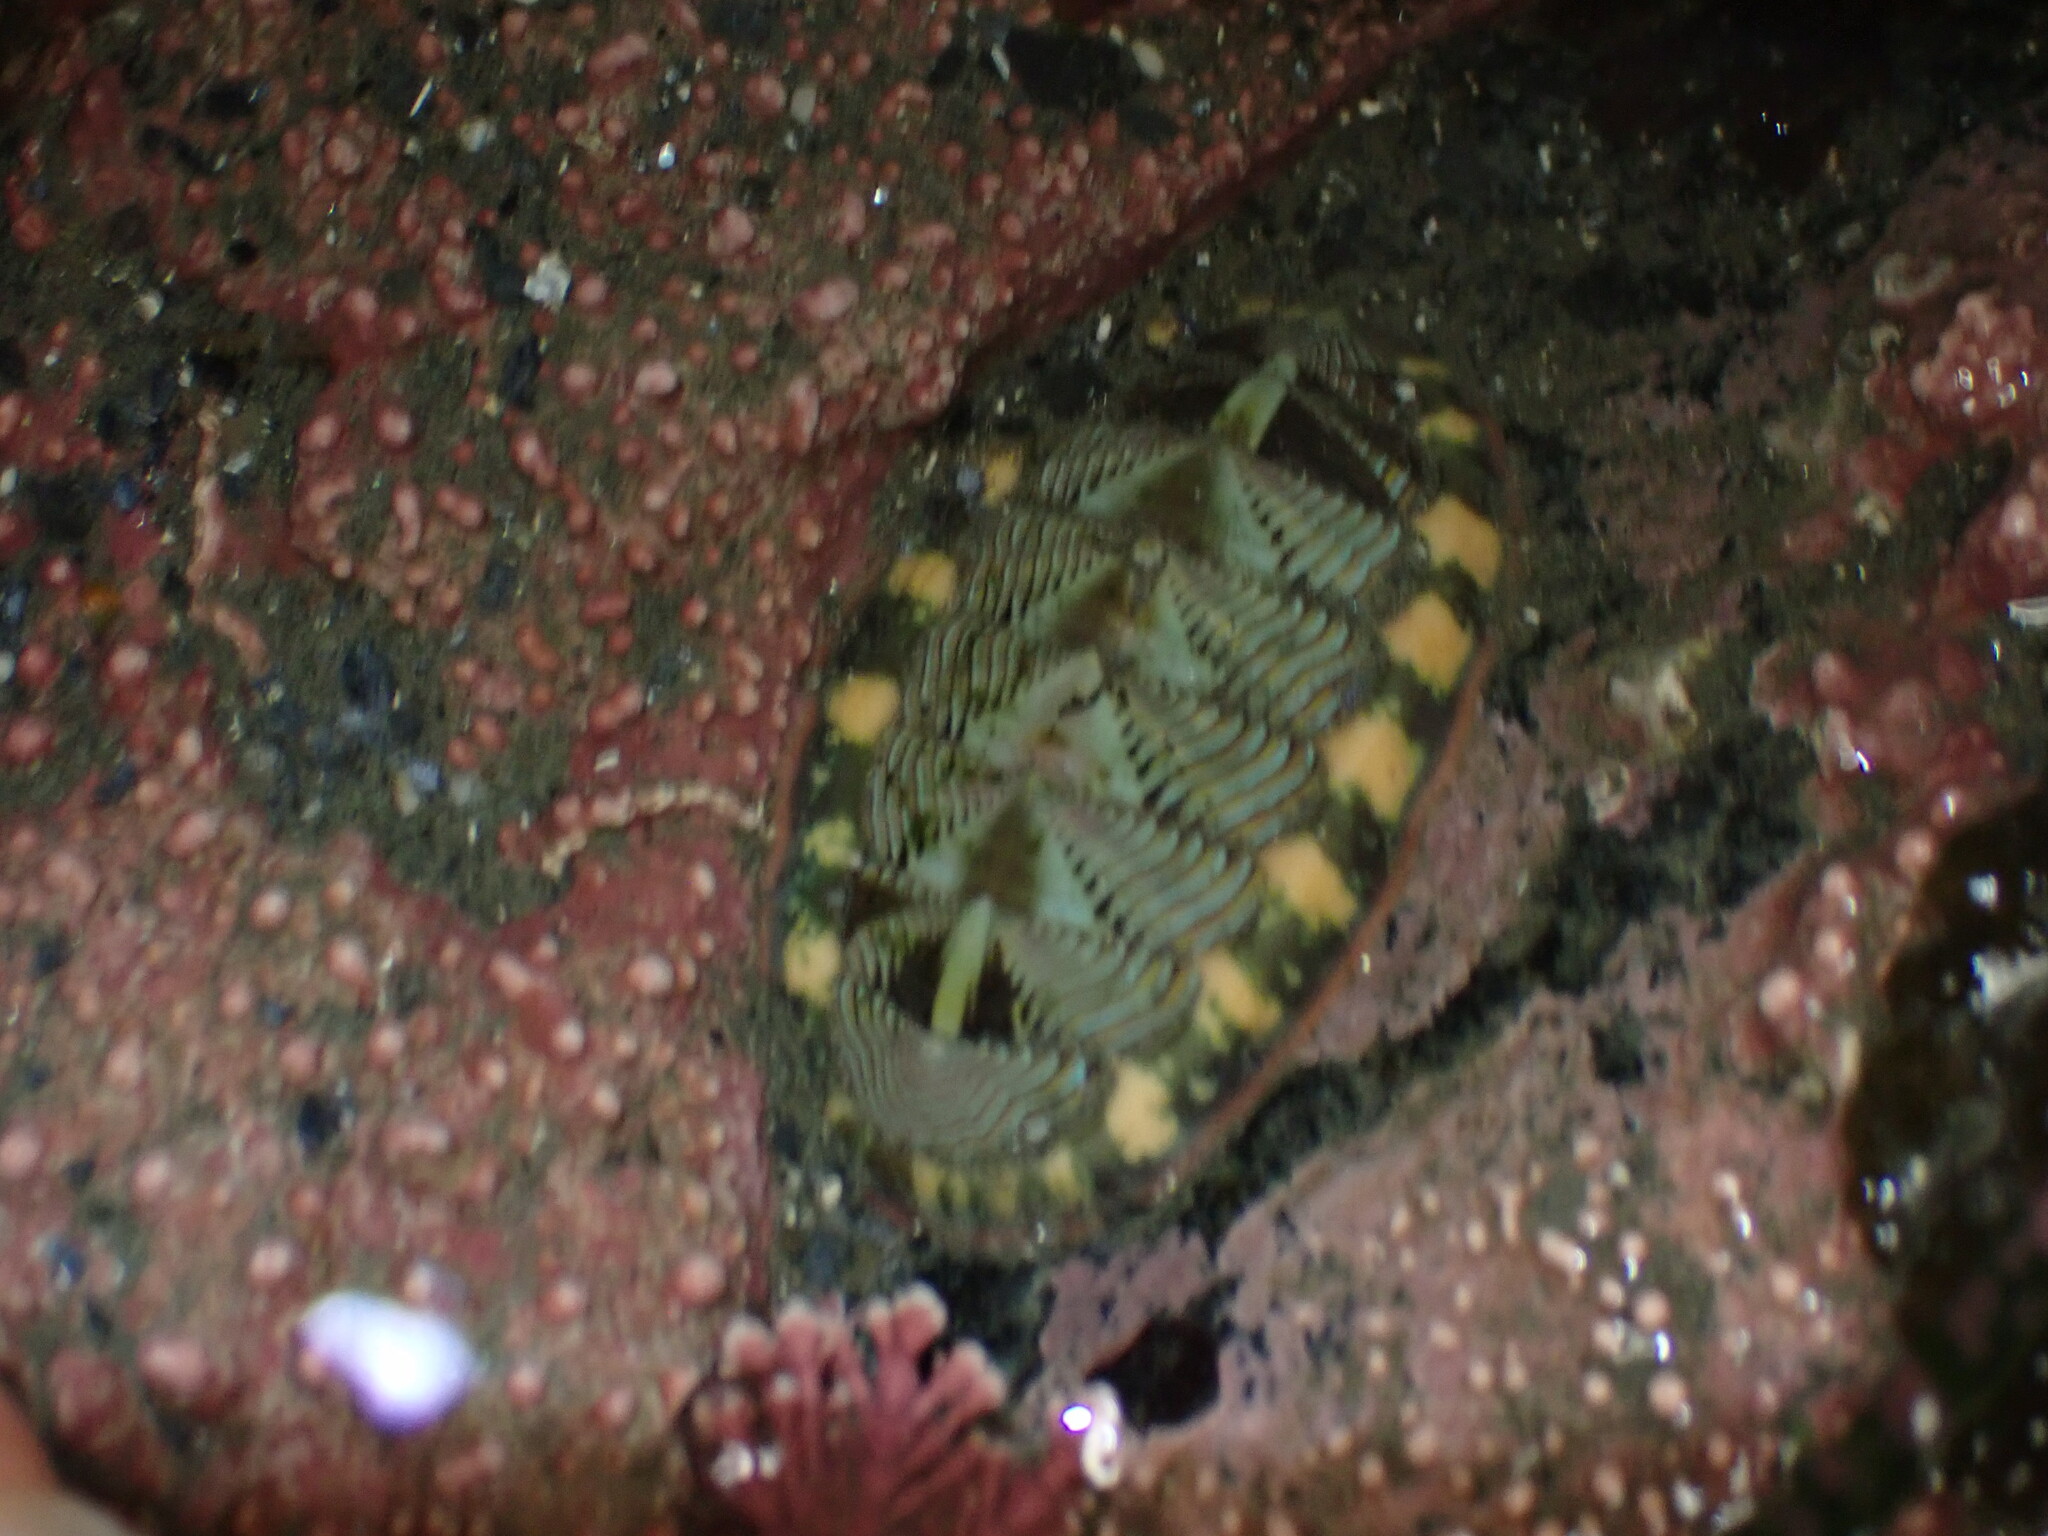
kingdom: Animalia
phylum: Mollusca
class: Polyplacophora
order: Chitonida
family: Tonicellidae
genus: Tonicella
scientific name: Tonicella lineata
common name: Lined chiton
